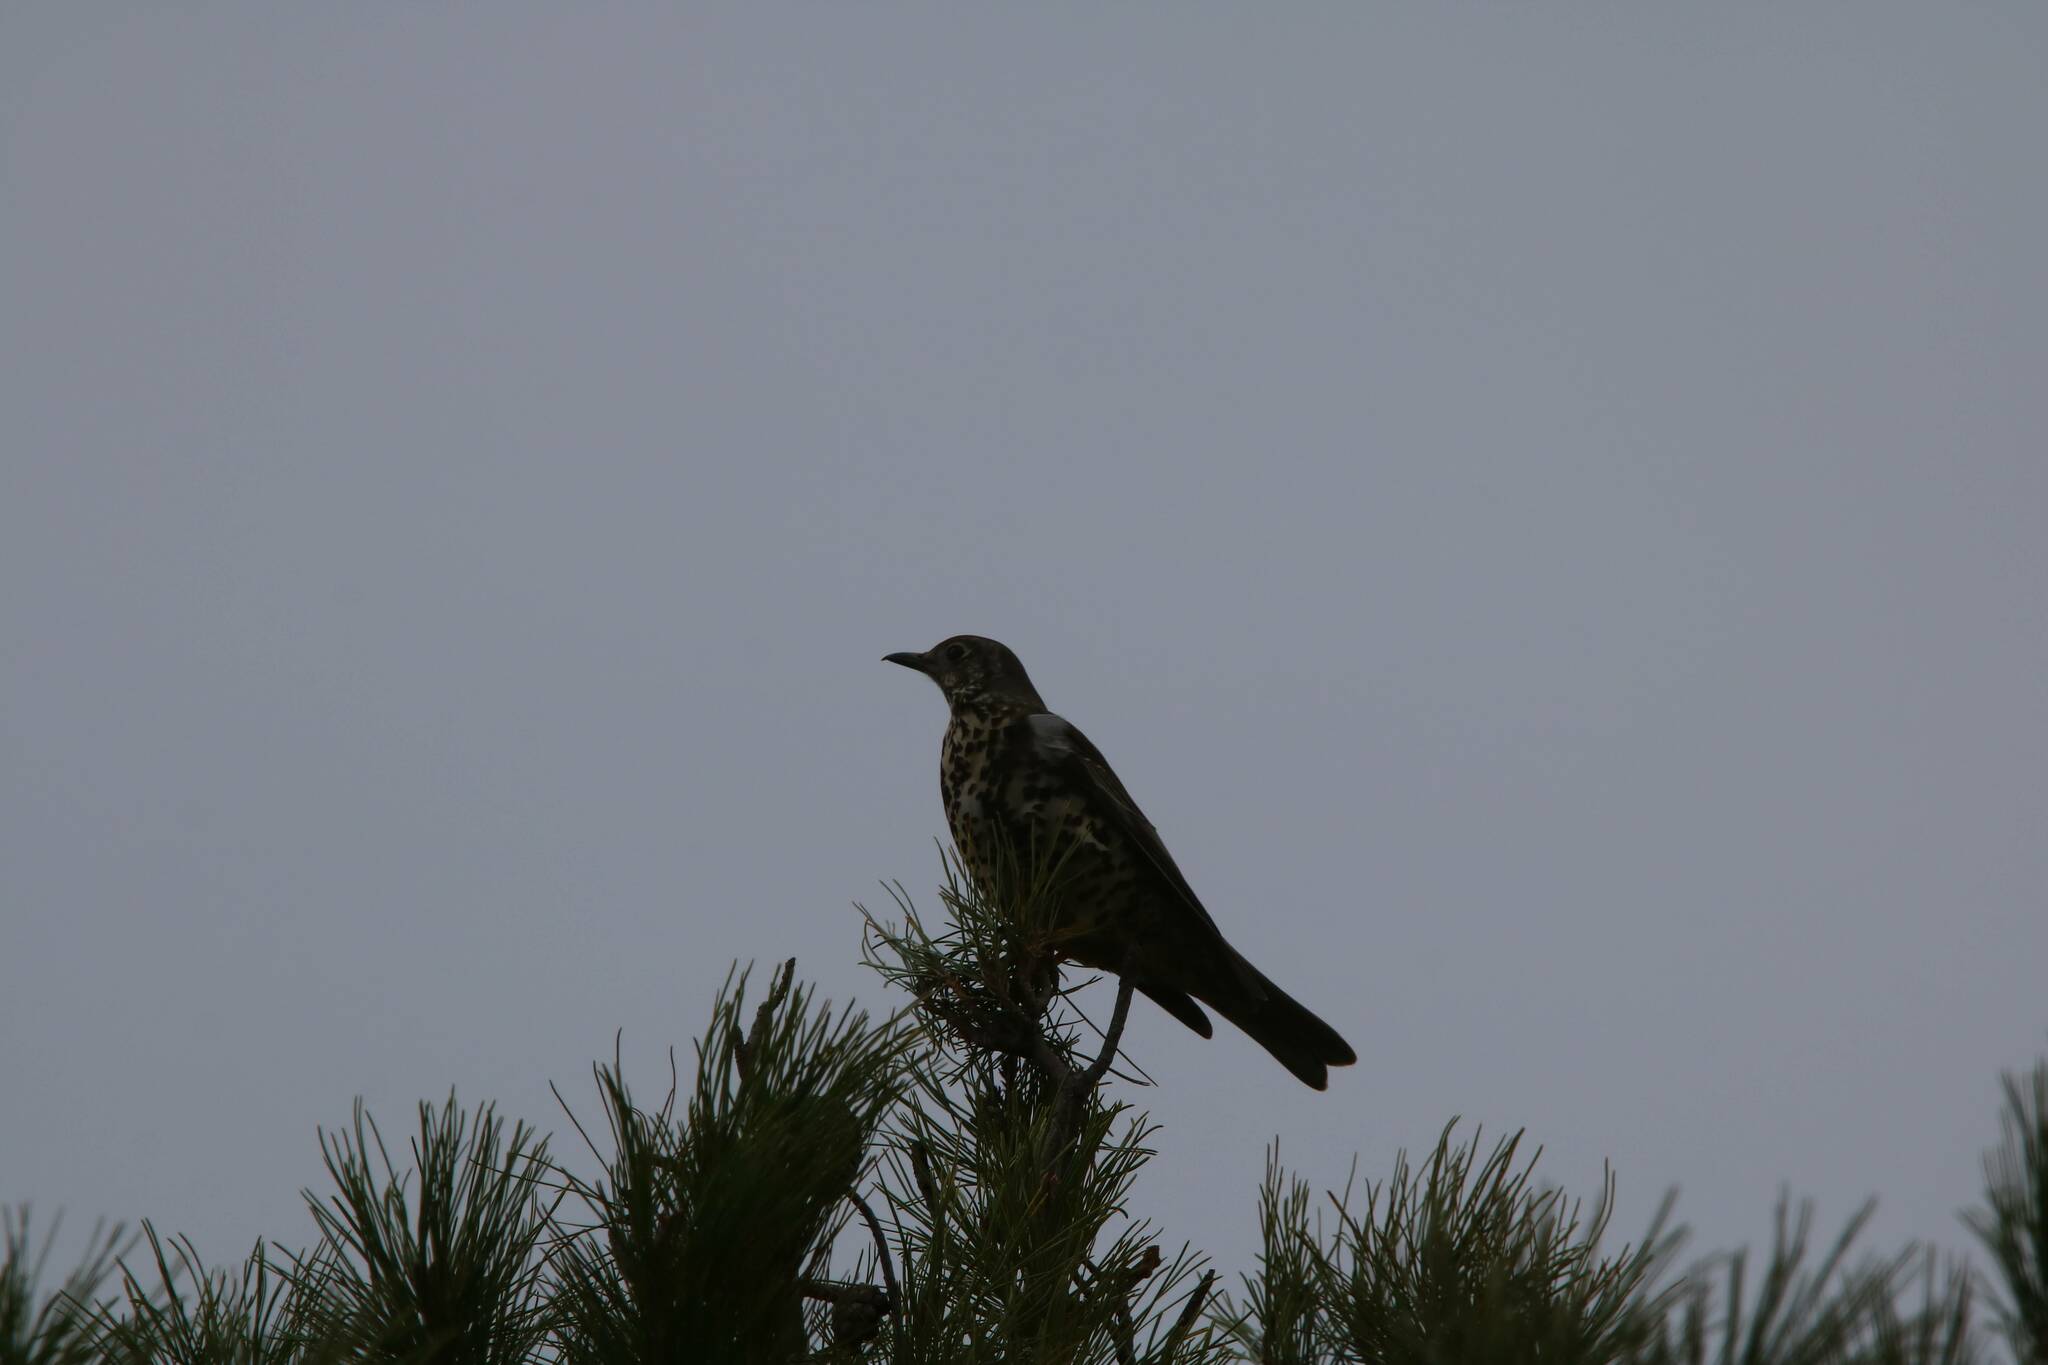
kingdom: Animalia
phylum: Chordata
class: Aves
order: Passeriformes
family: Turdidae
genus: Turdus
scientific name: Turdus viscivorus
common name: Mistle thrush
